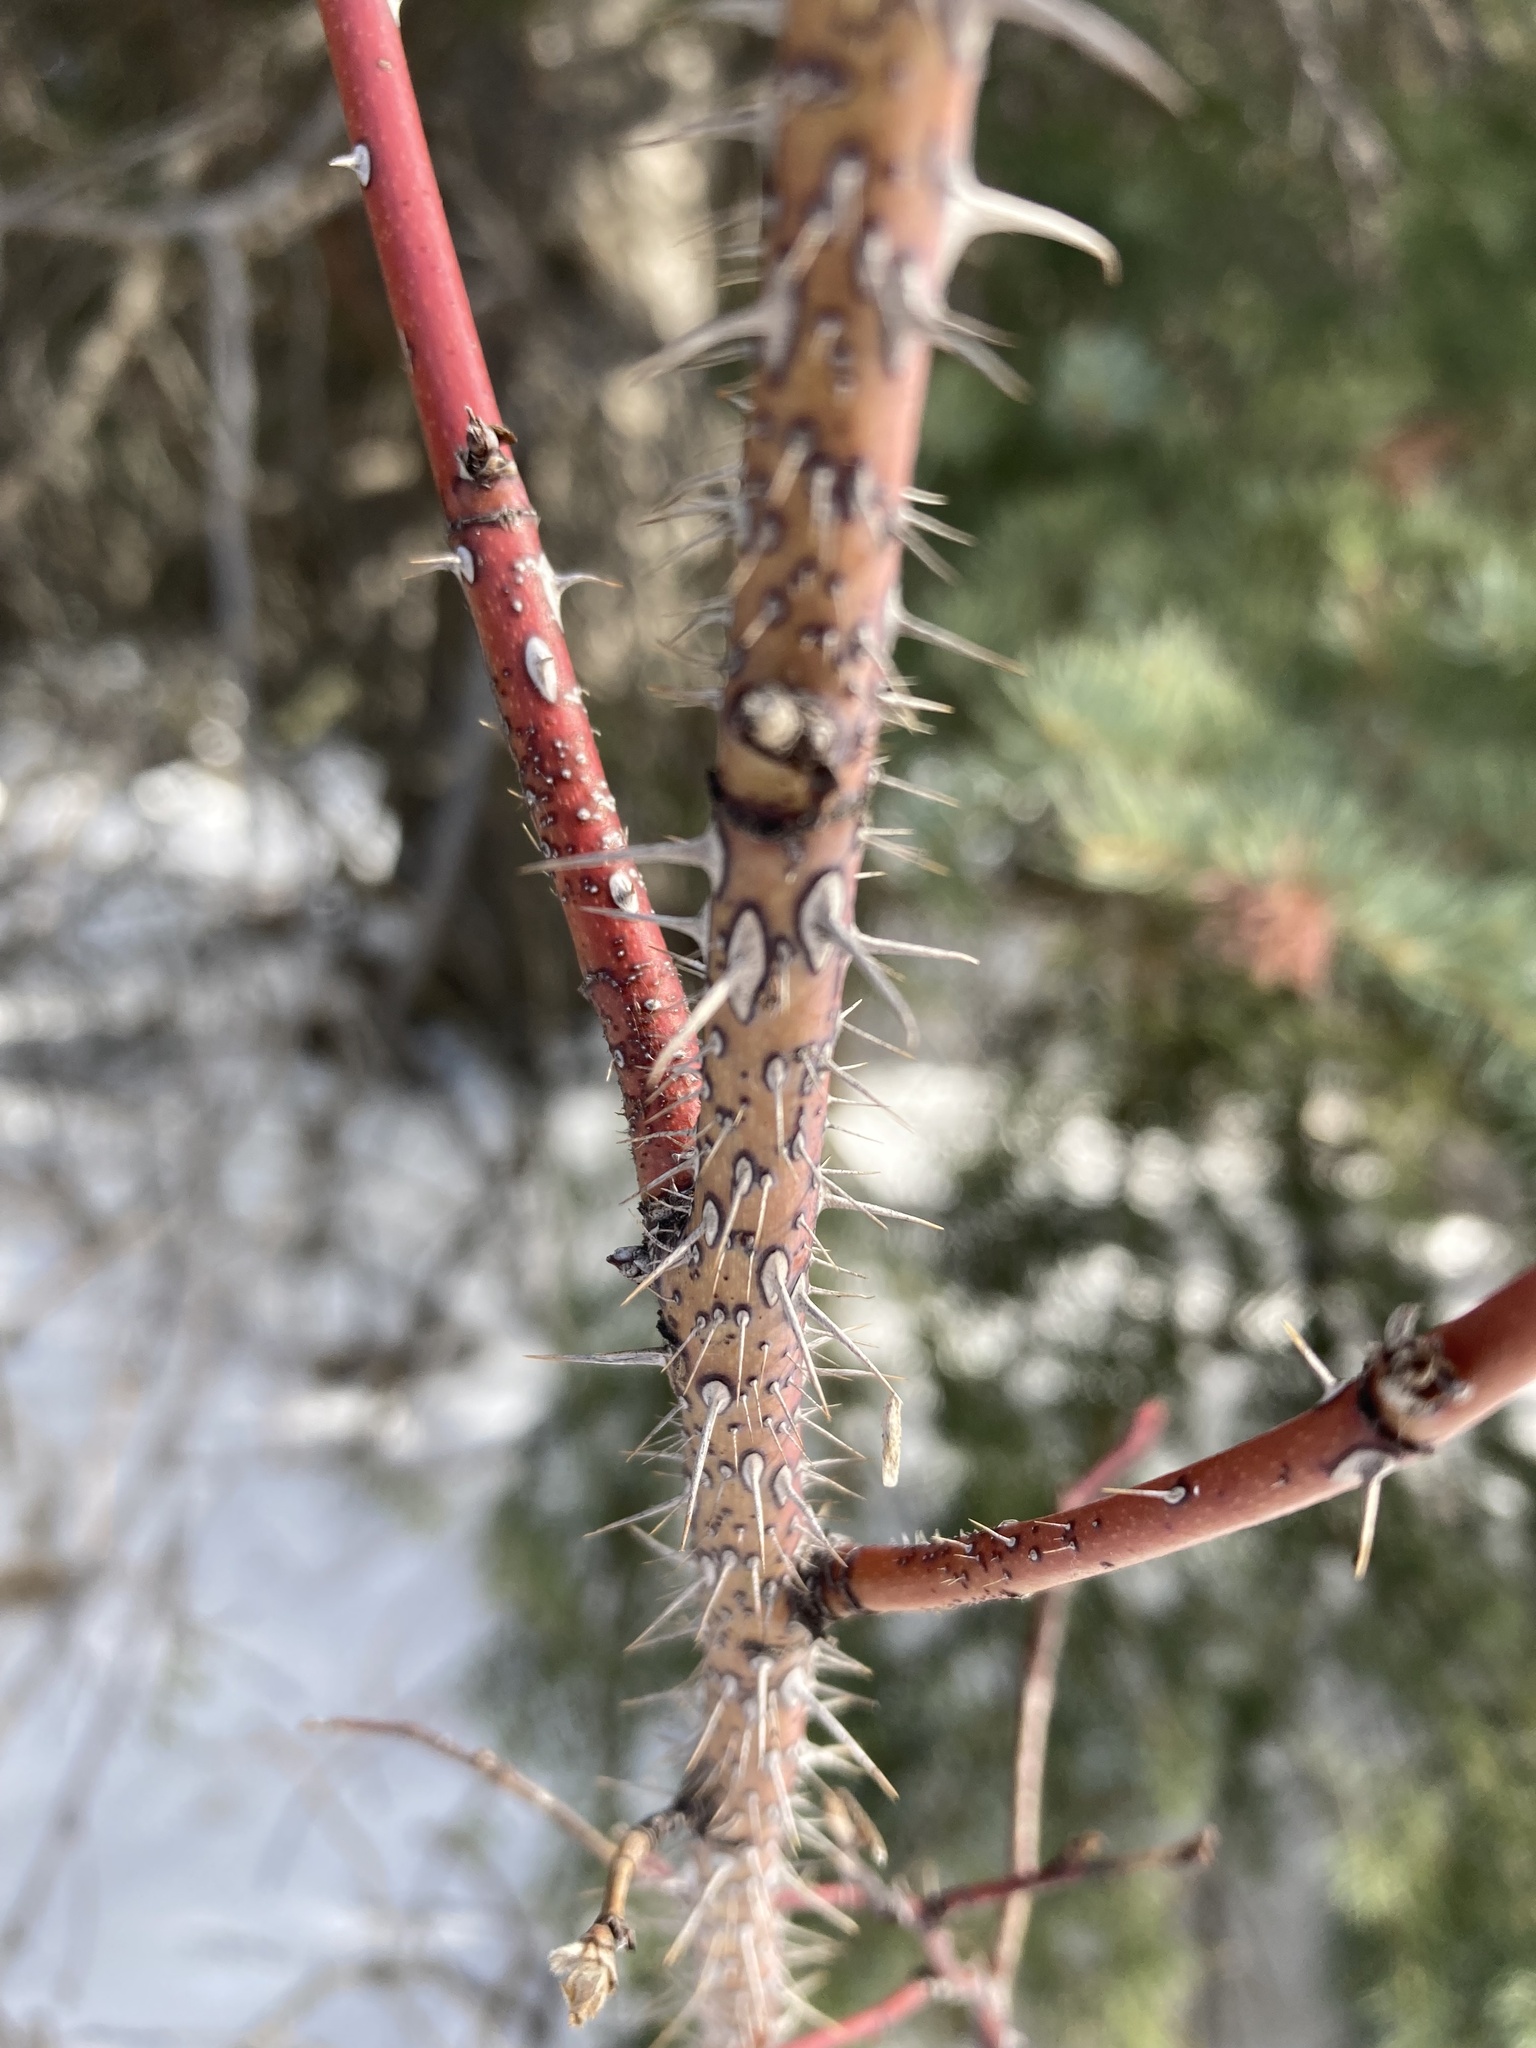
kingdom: Plantae
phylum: Tracheophyta
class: Magnoliopsida
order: Rosales
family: Rosaceae
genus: Rosa
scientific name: Rosa woodsii
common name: Woods's rose
